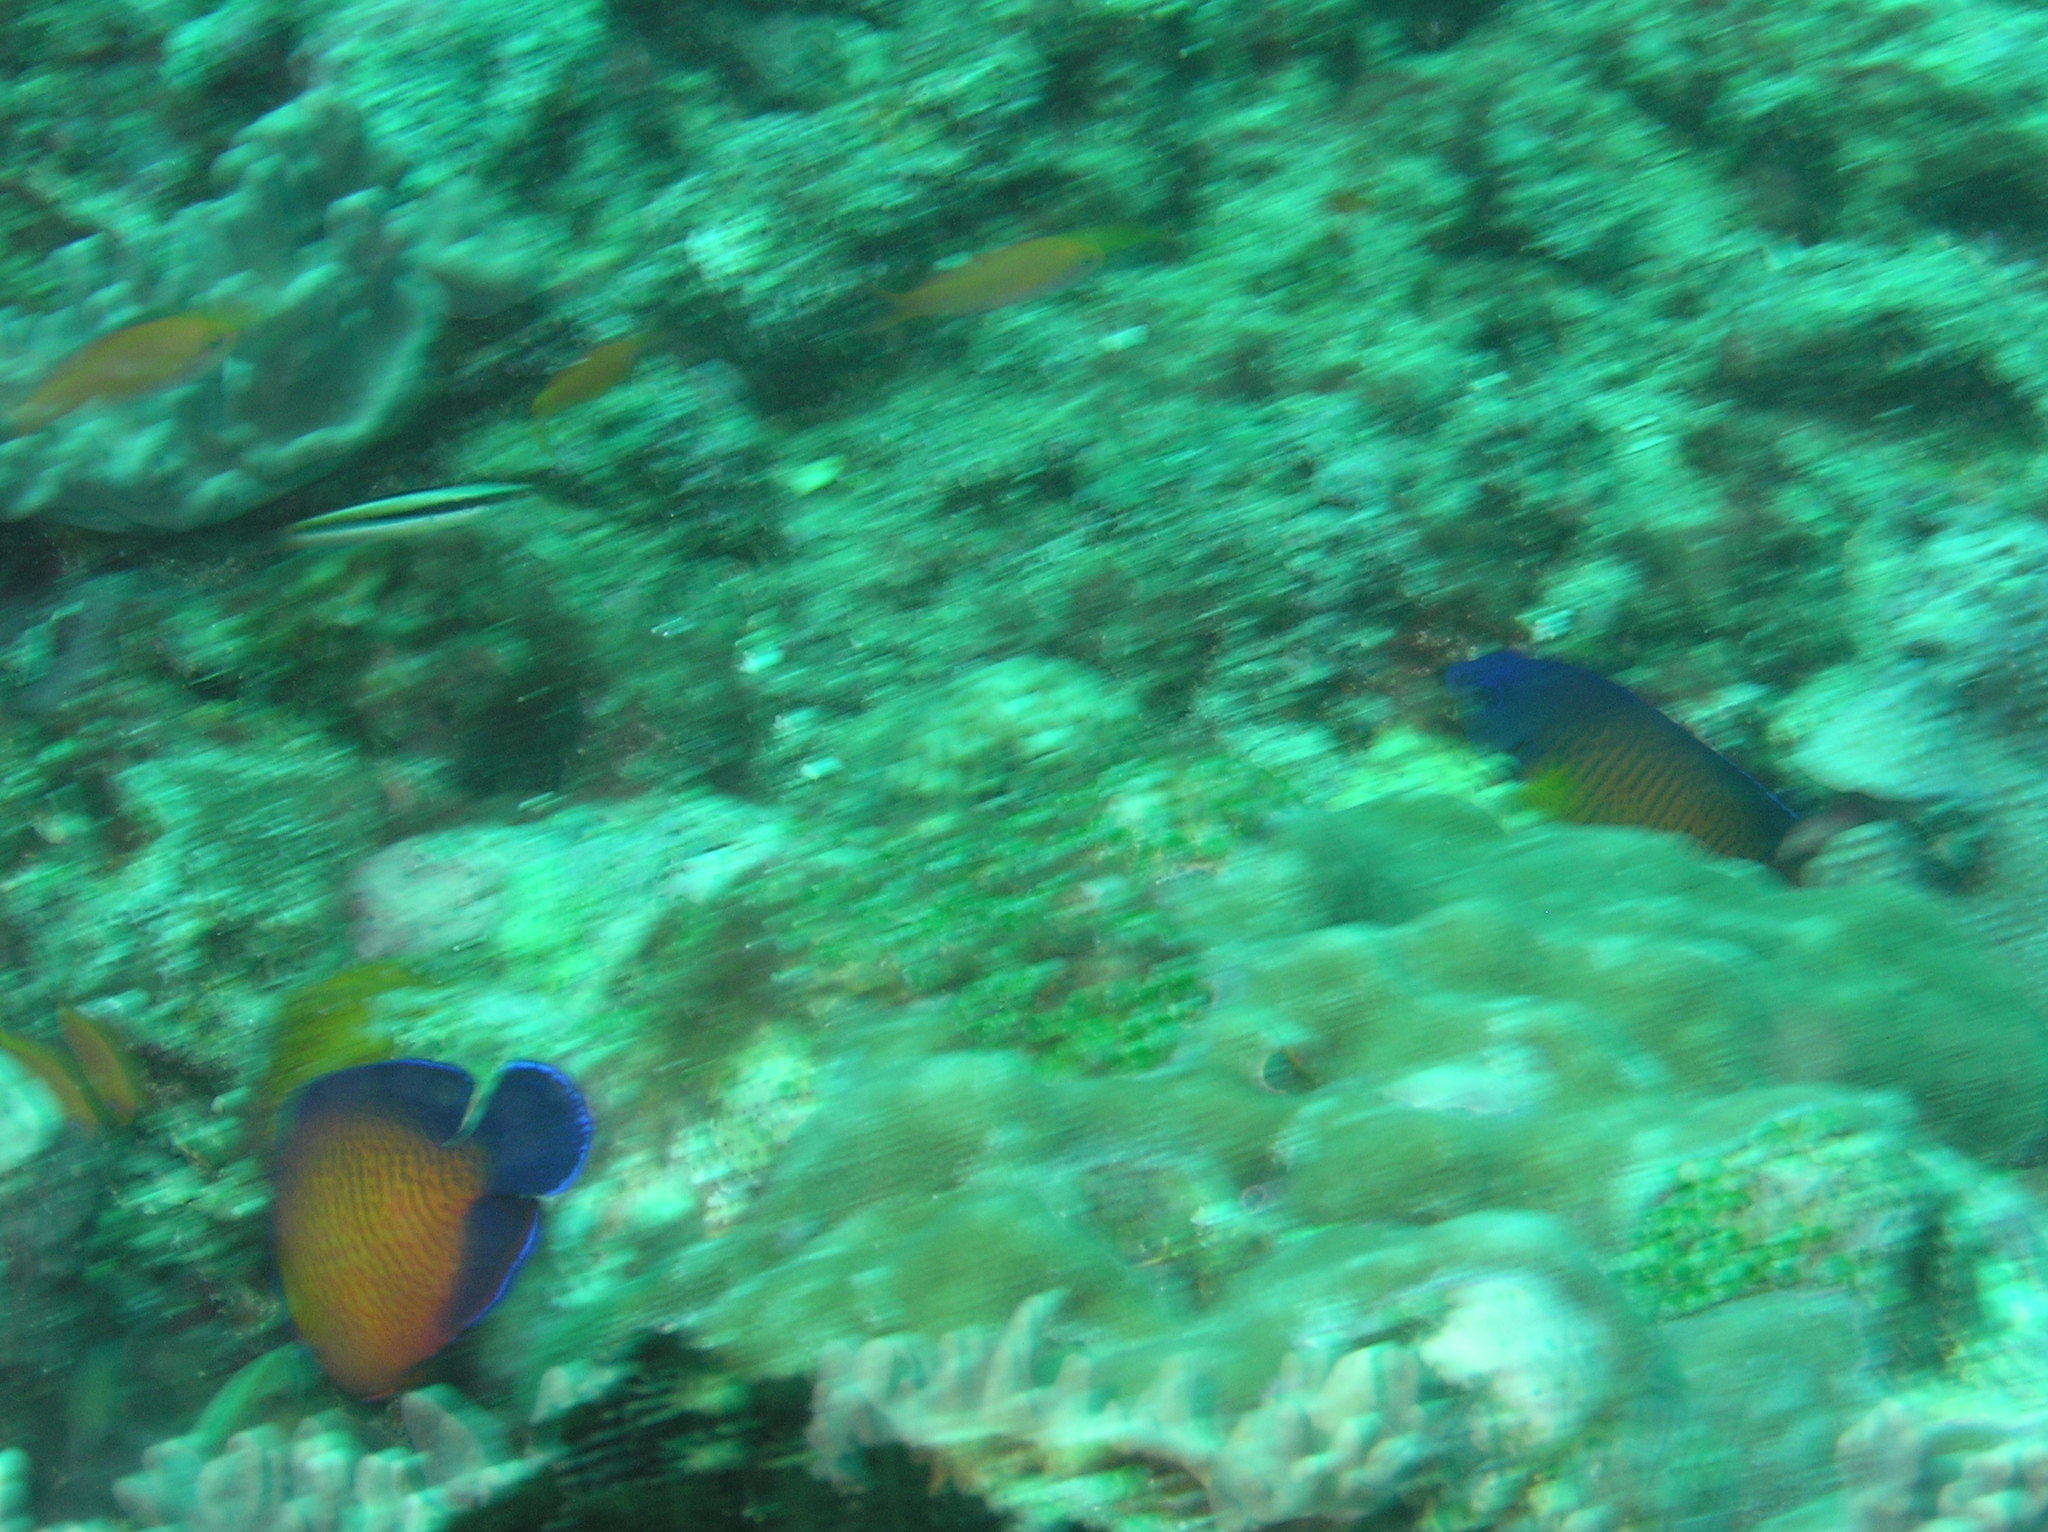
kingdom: Animalia
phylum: Chordata
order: Perciformes
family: Pomacanthidae
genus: Centropyge
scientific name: Centropyge bispinosa
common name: Coral beauty
